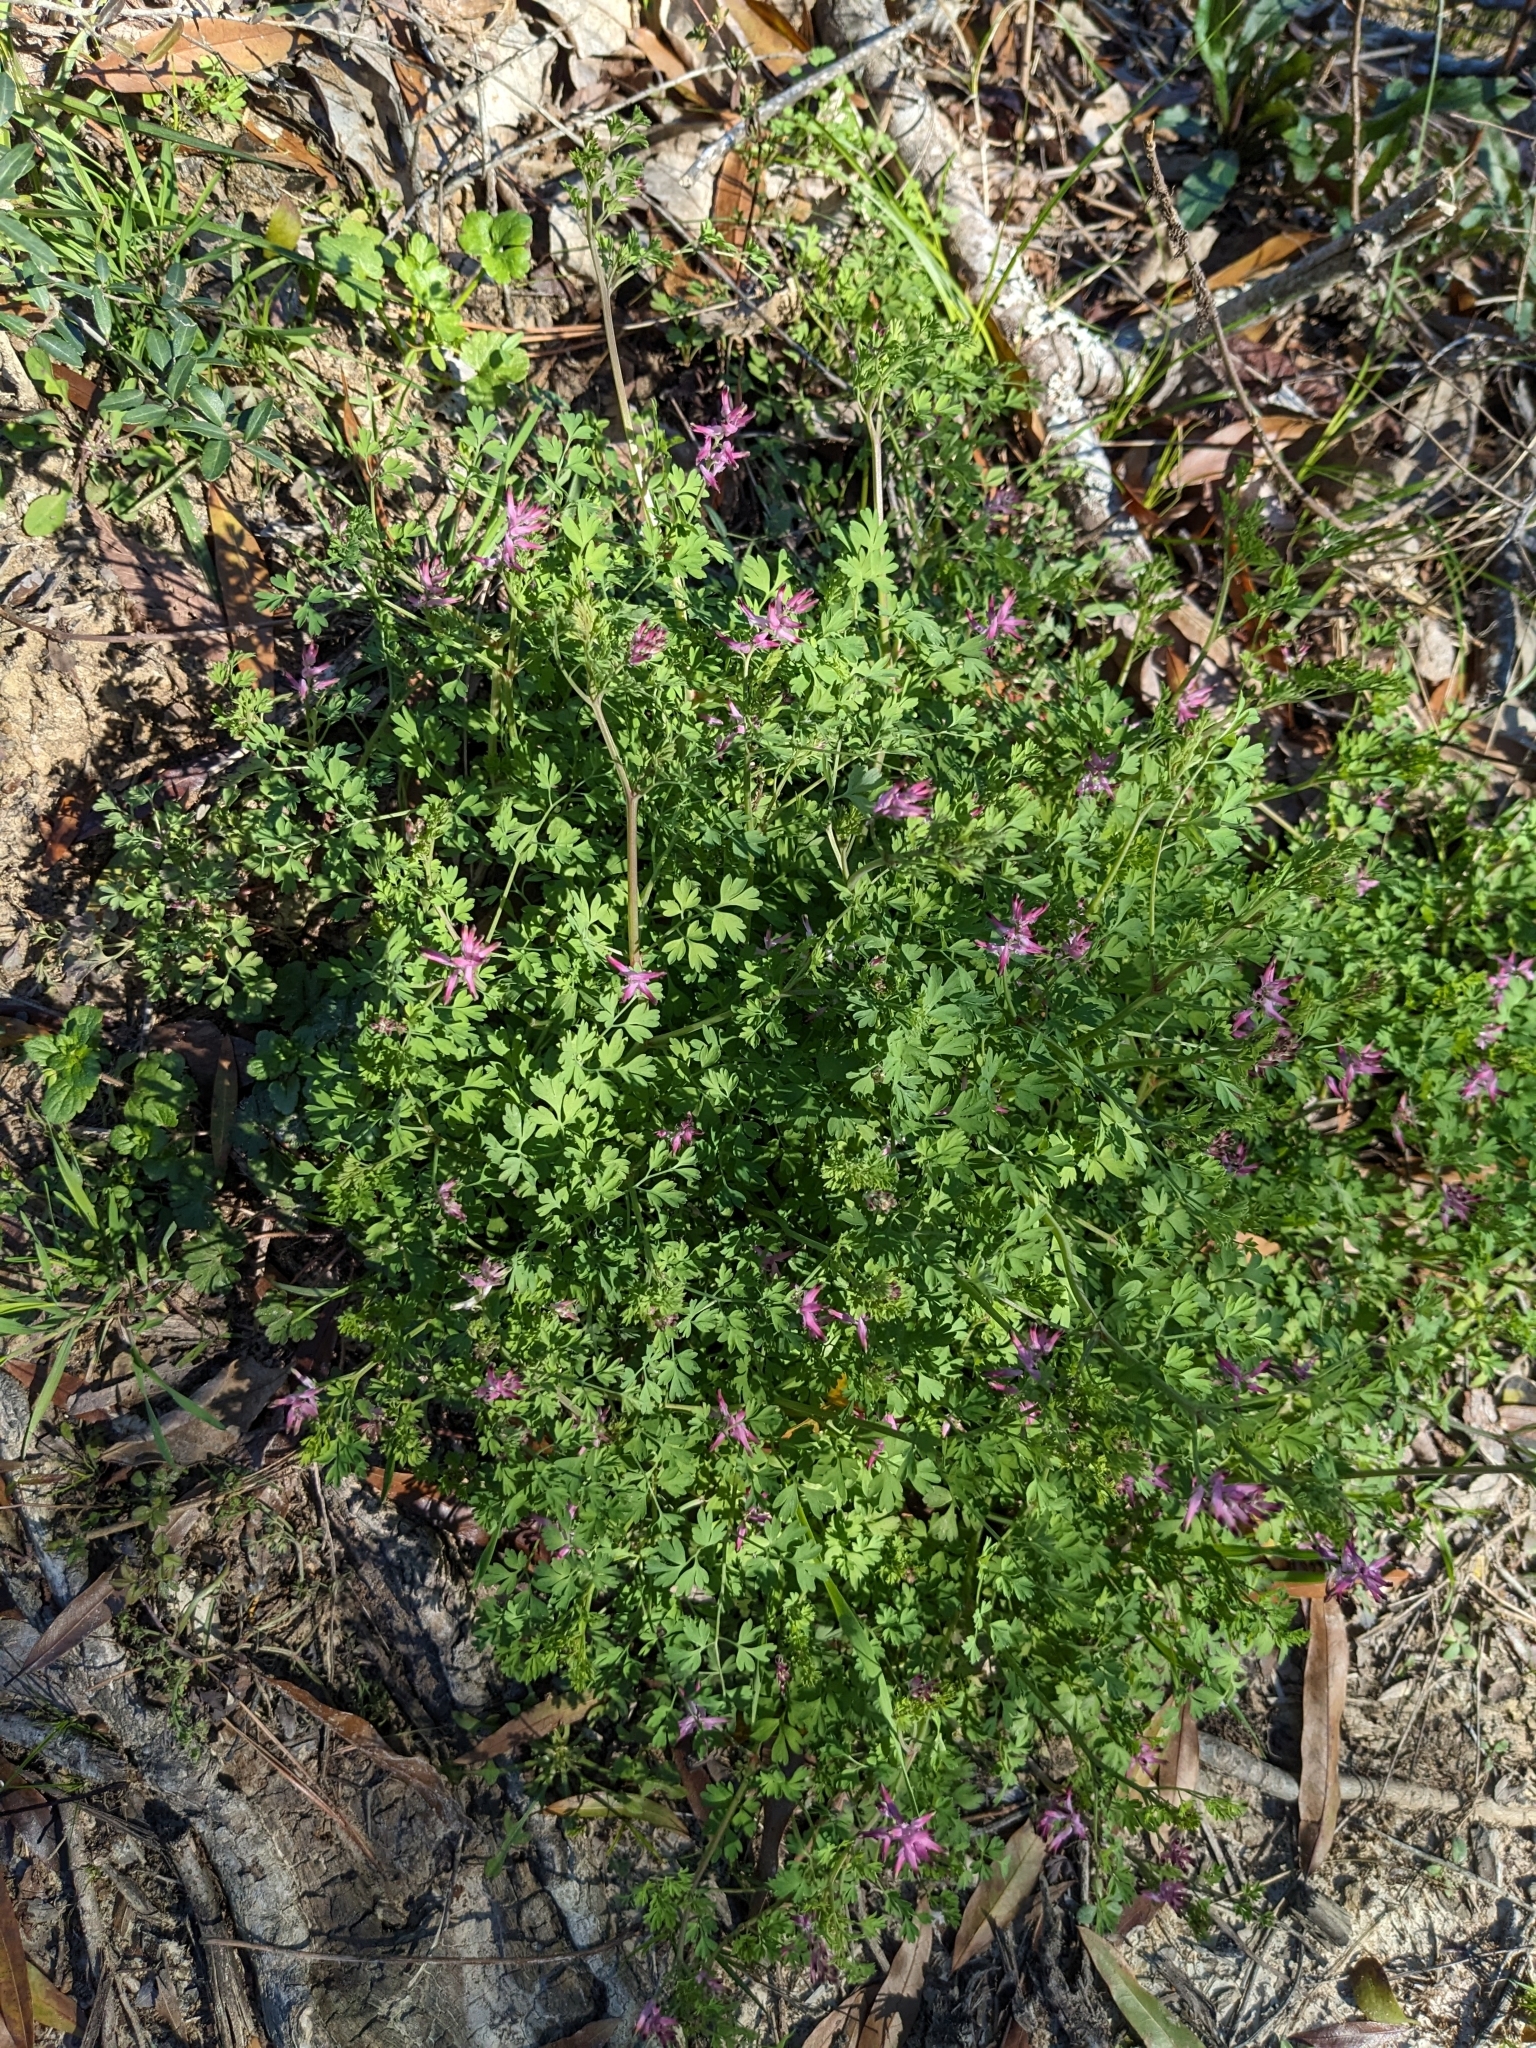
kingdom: Plantae
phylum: Tracheophyta
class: Magnoliopsida
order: Ranunculales
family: Papaveraceae
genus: Fumaria
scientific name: Fumaria muralis
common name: Common ramping-fumitory
